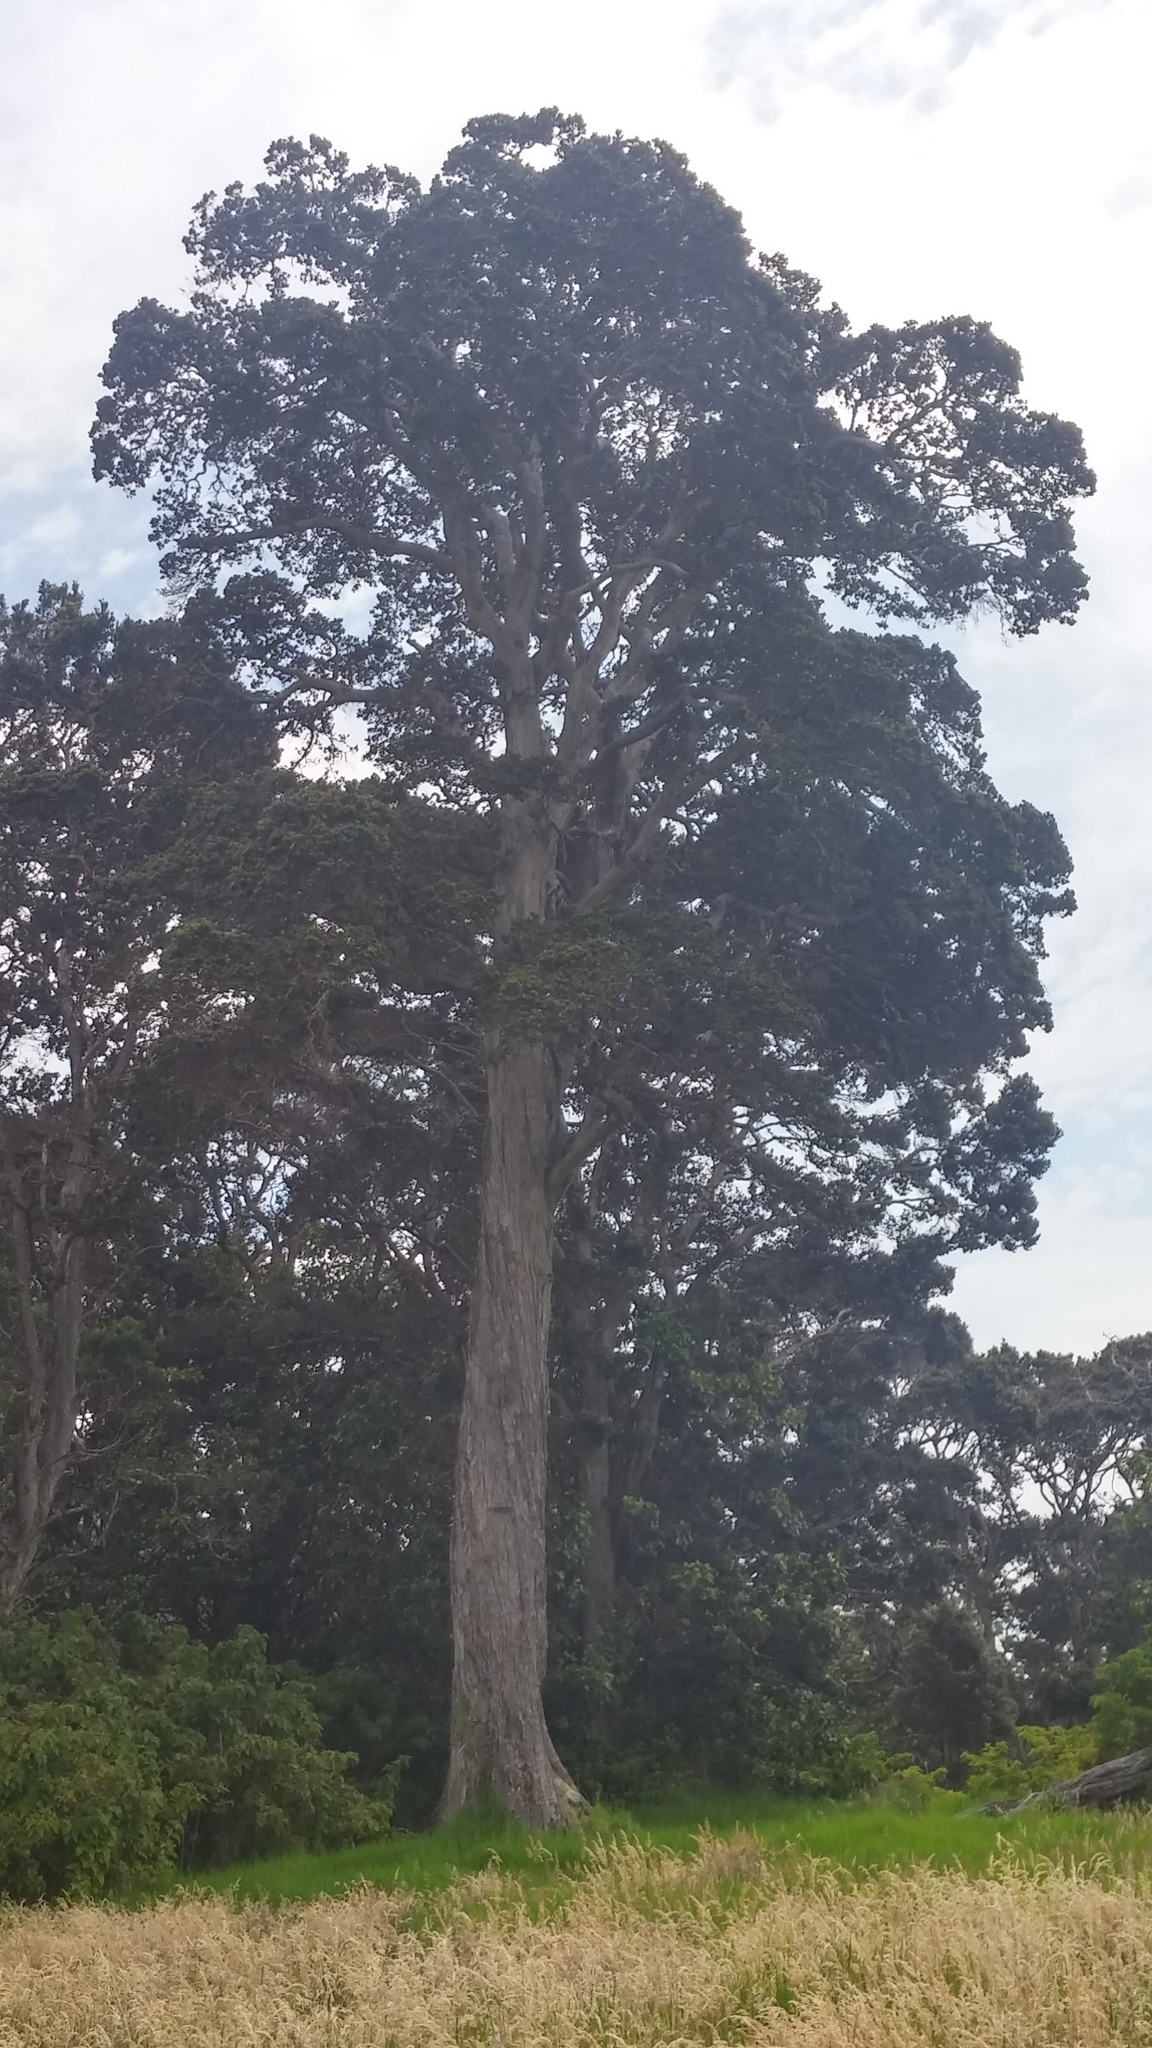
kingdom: Plantae
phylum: Tracheophyta
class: Magnoliopsida
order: Myrtales
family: Myrtaceae
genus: Metrosideros
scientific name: Metrosideros polymorpha
